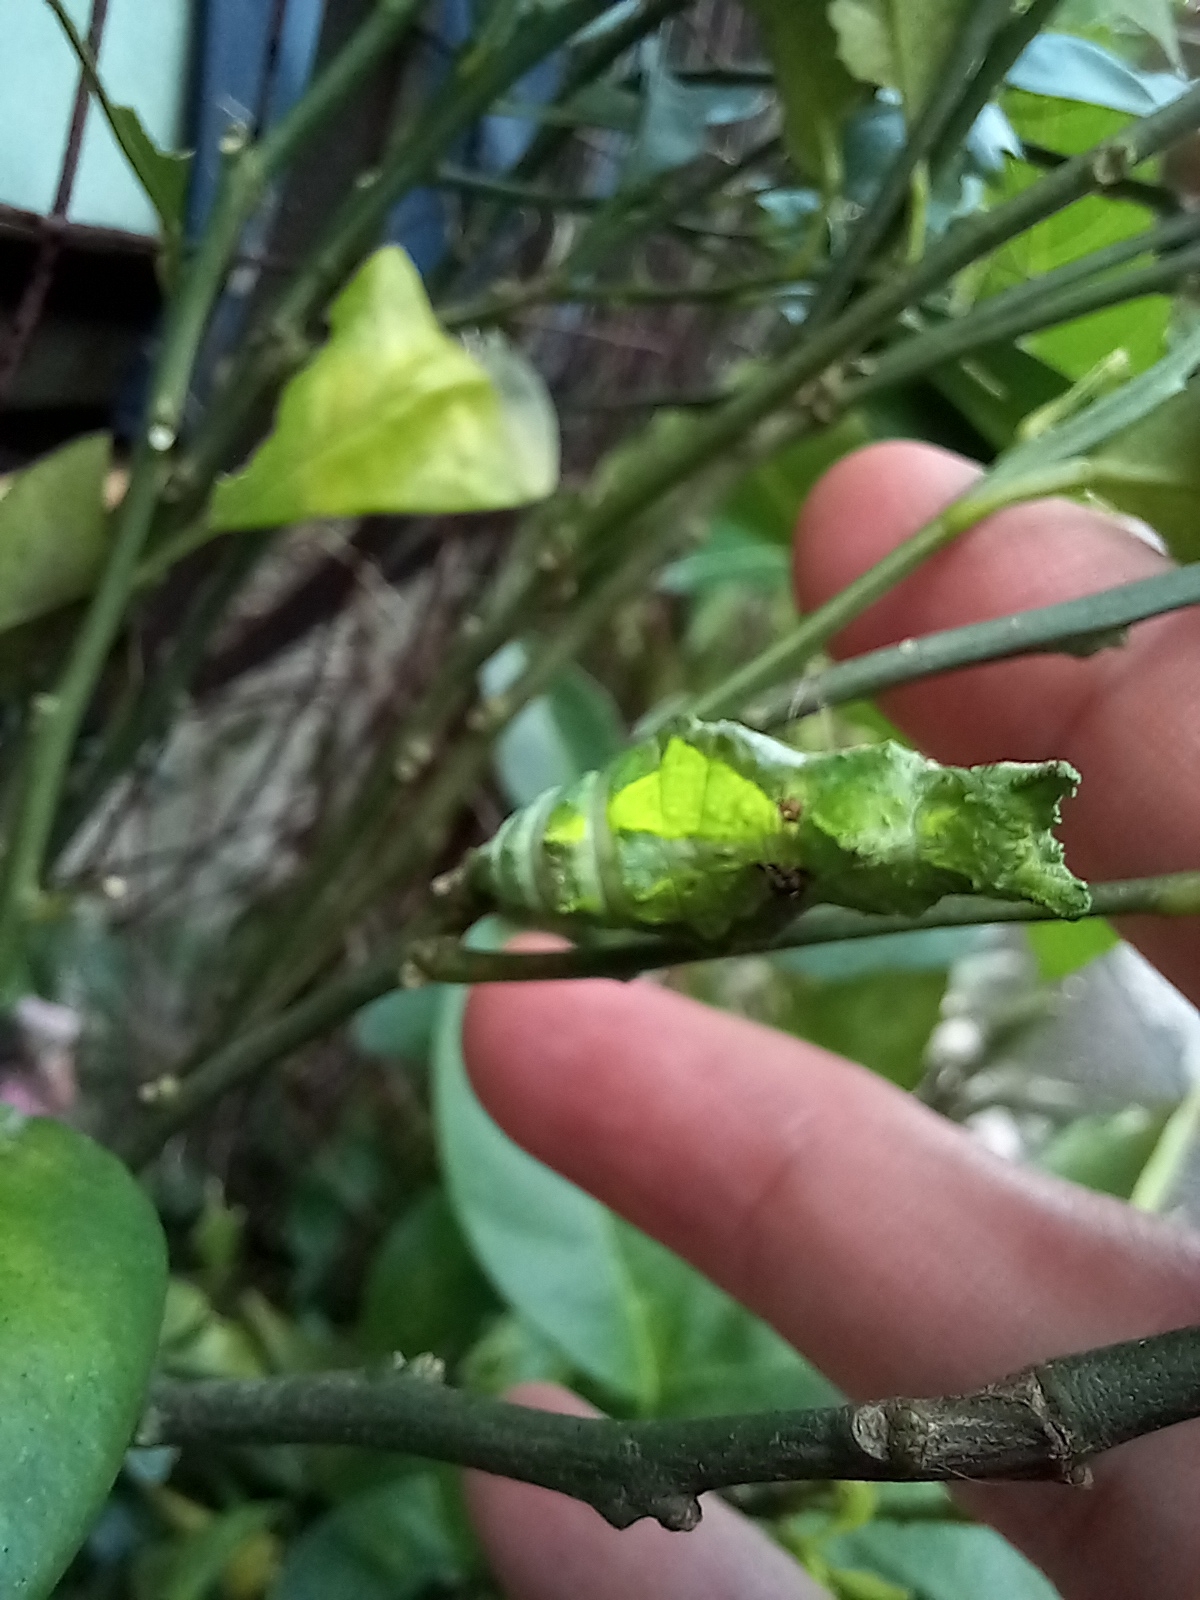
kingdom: Animalia
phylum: Arthropoda
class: Insecta
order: Lepidoptera
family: Papilionidae
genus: Papilio
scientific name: Papilio polytes
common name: Common mormon
